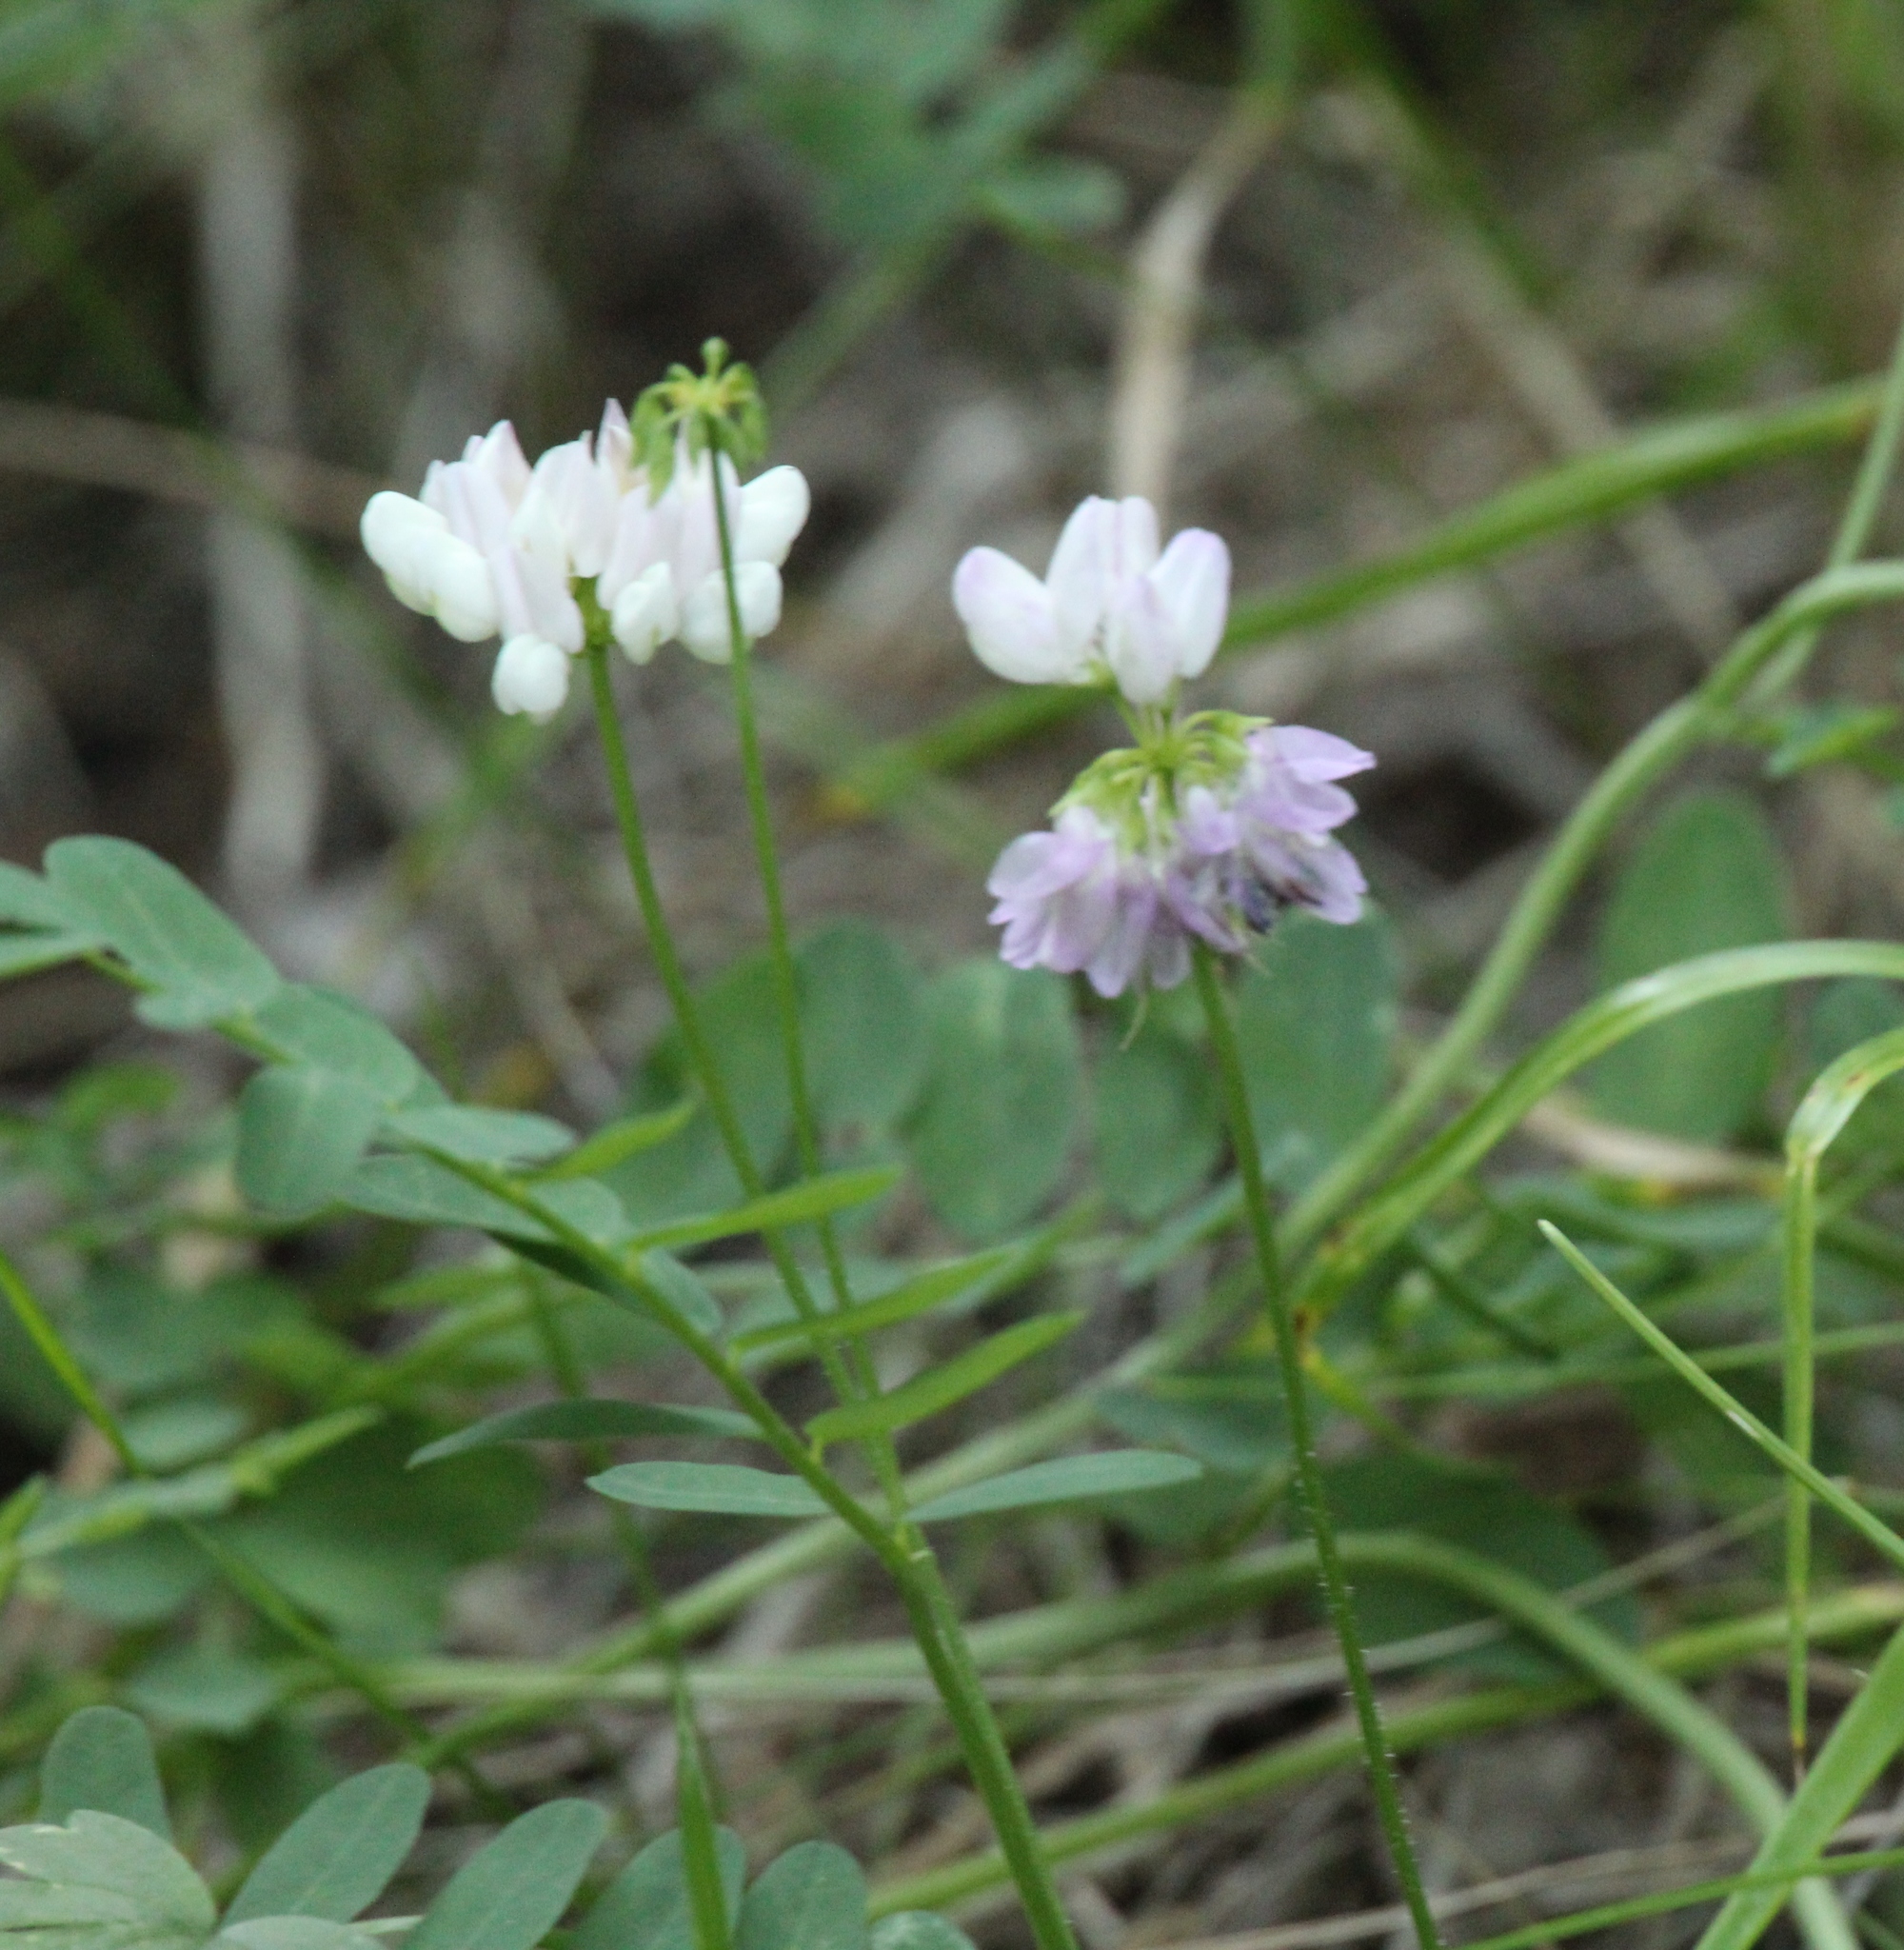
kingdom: Plantae
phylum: Tracheophyta
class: Magnoliopsida
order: Fabales
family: Fabaceae
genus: Coronilla
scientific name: Coronilla varia
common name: Crownvetch
